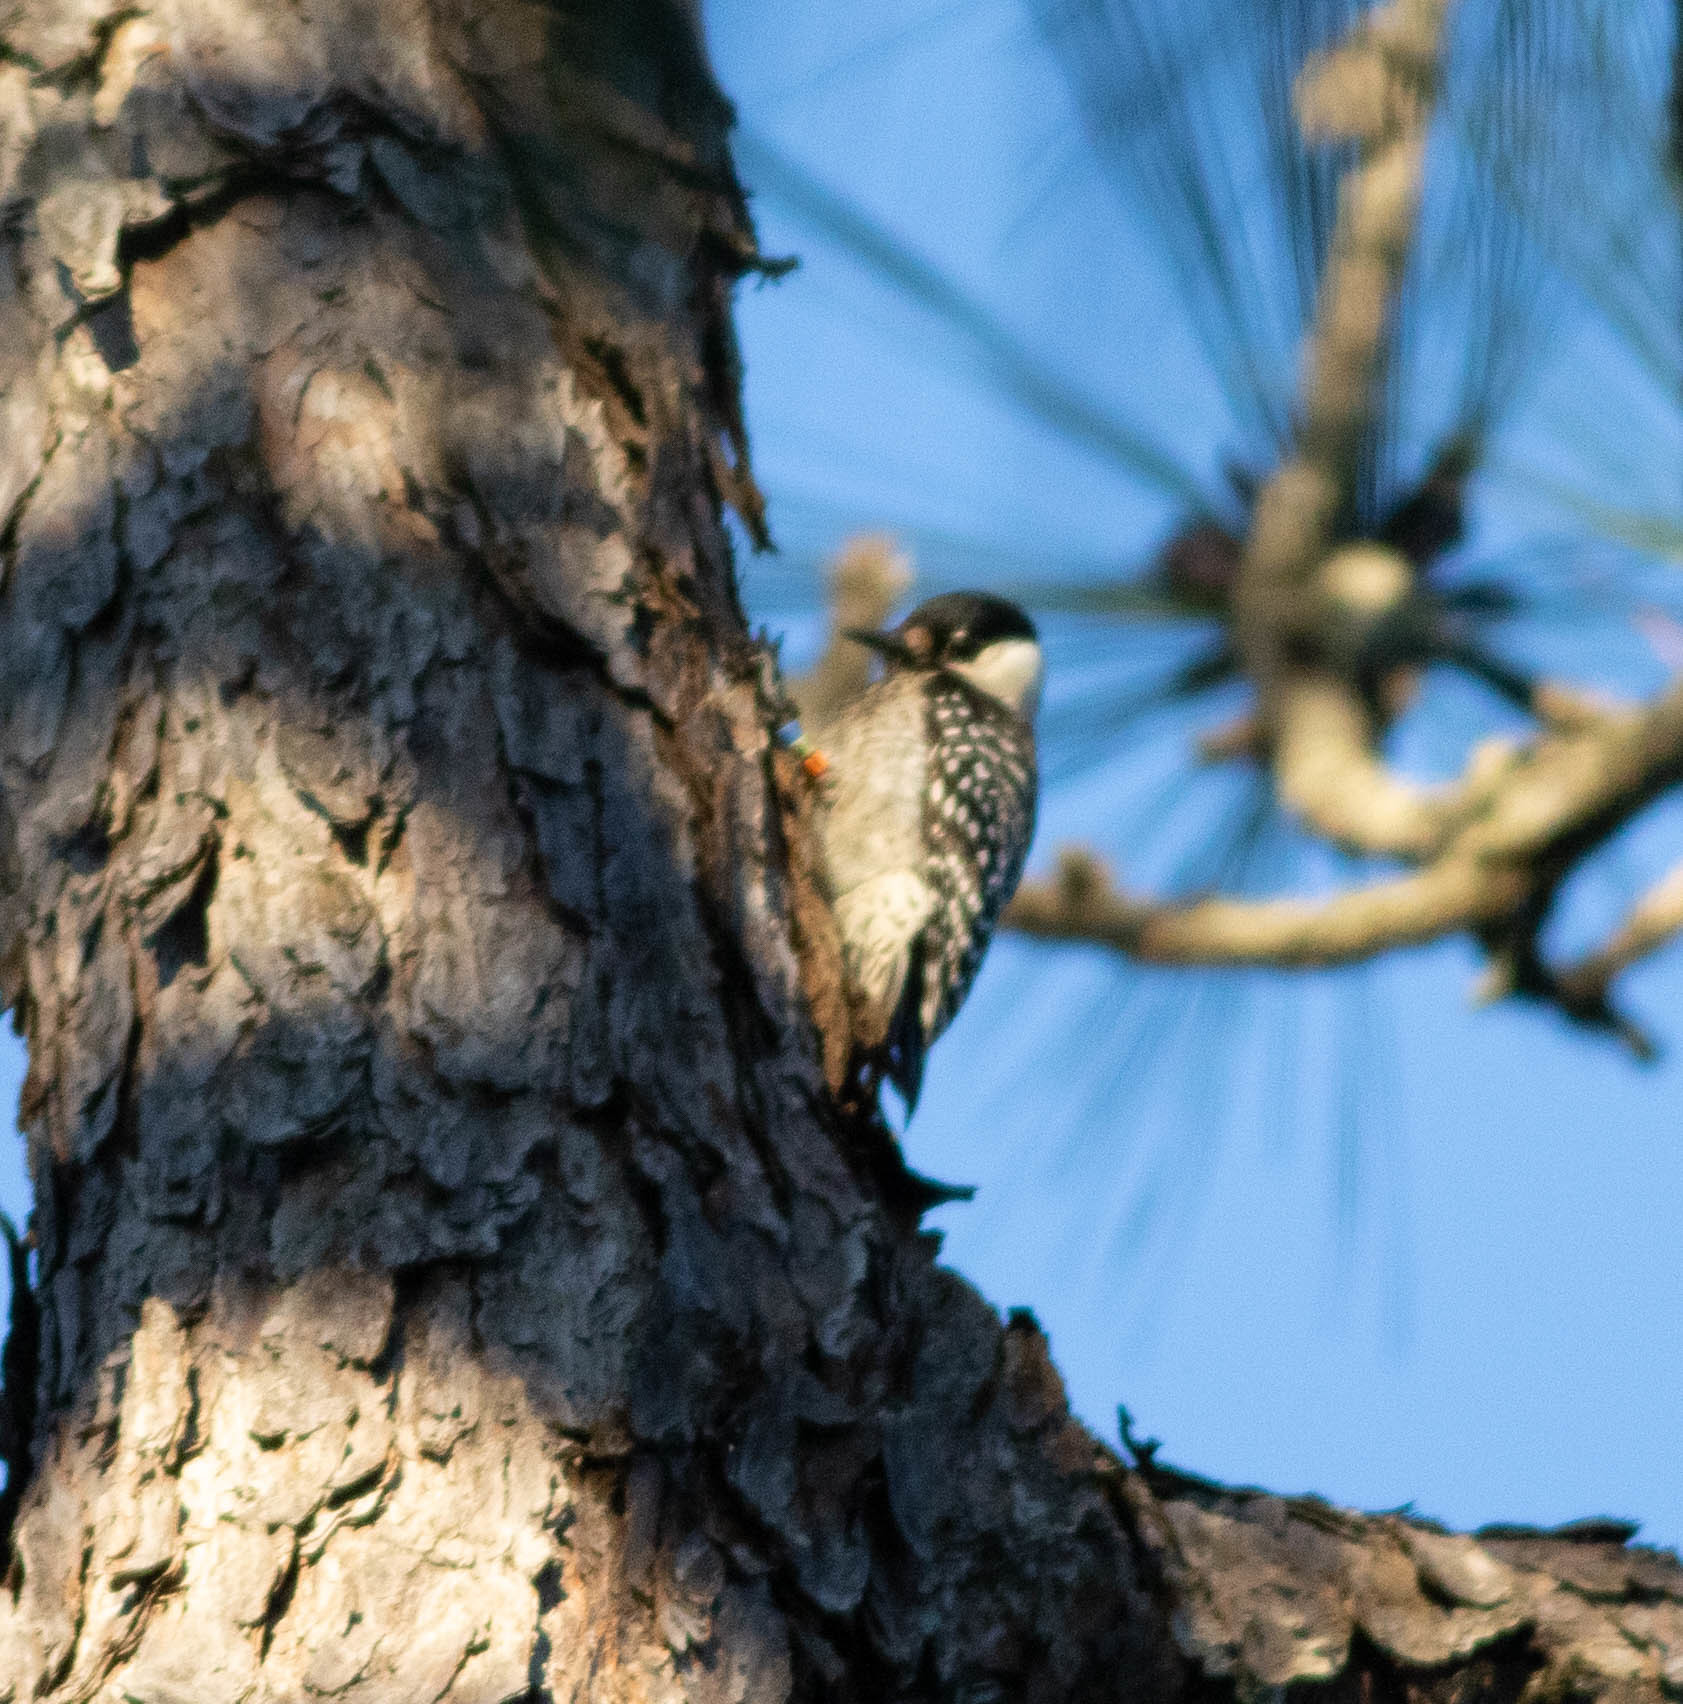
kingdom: Animalia
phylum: Chordata
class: Aves
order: Piciformes
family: Picidae
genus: Leuconotopicus
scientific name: Leuconotopicus borealis
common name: Red-cockaded woodpecker
